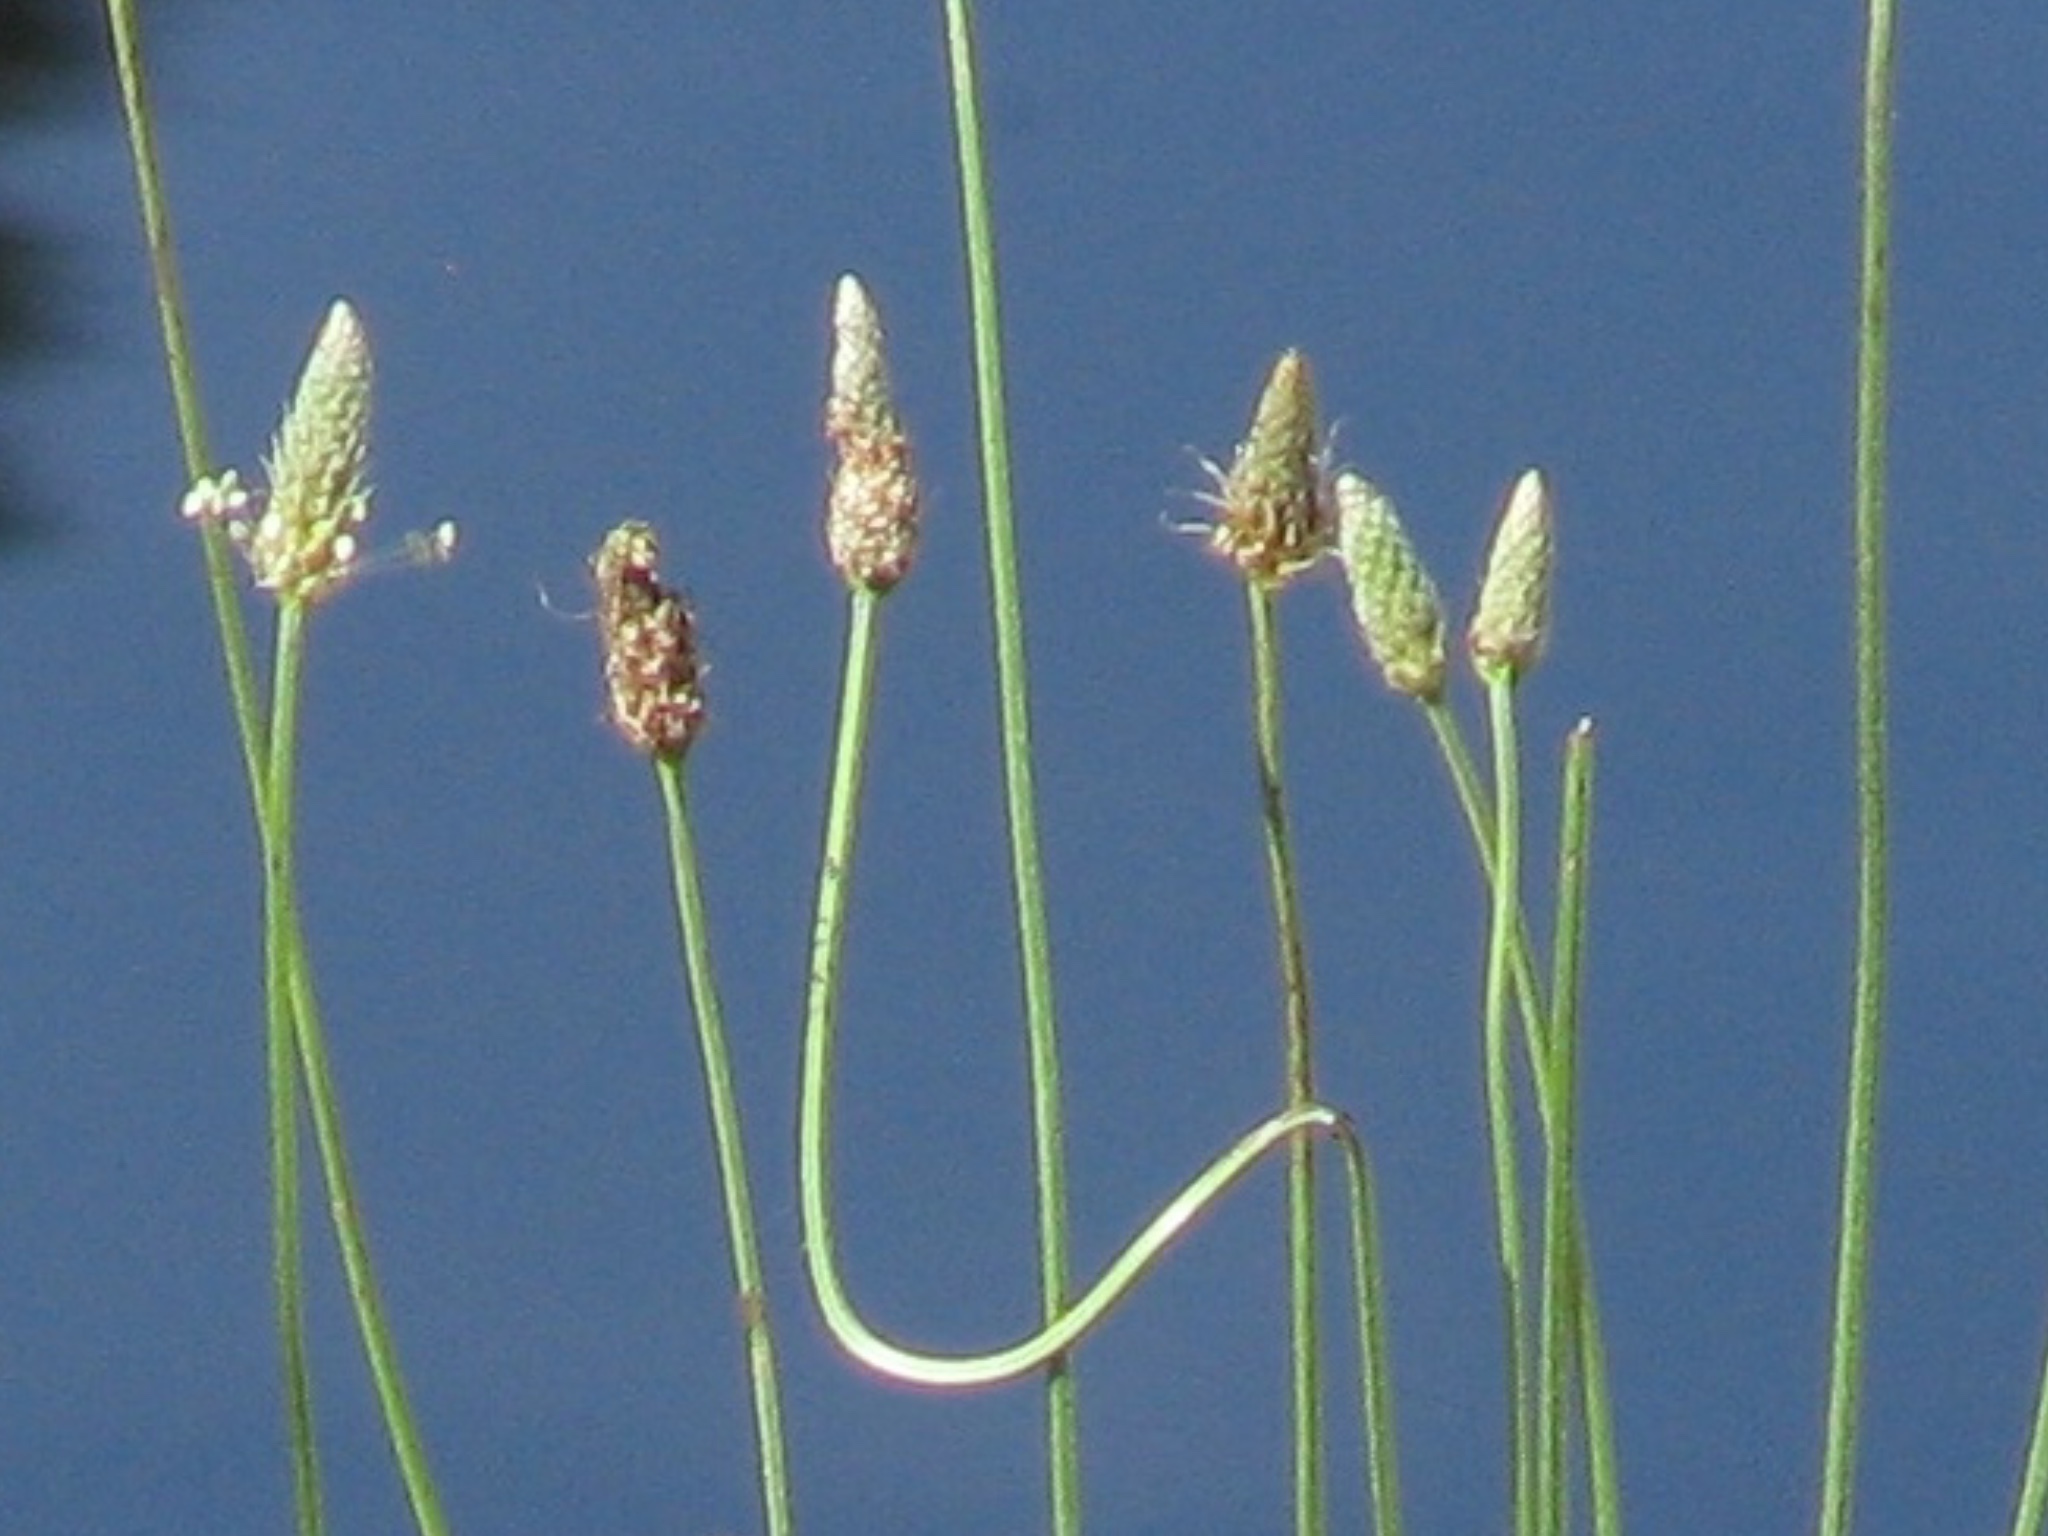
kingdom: Plantae
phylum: Tracheophyta
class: Magnoliopsida
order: Lamiales
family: Plantaginaceae
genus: Plantago
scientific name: Plantago lanceolata
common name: Ribwort plantain
